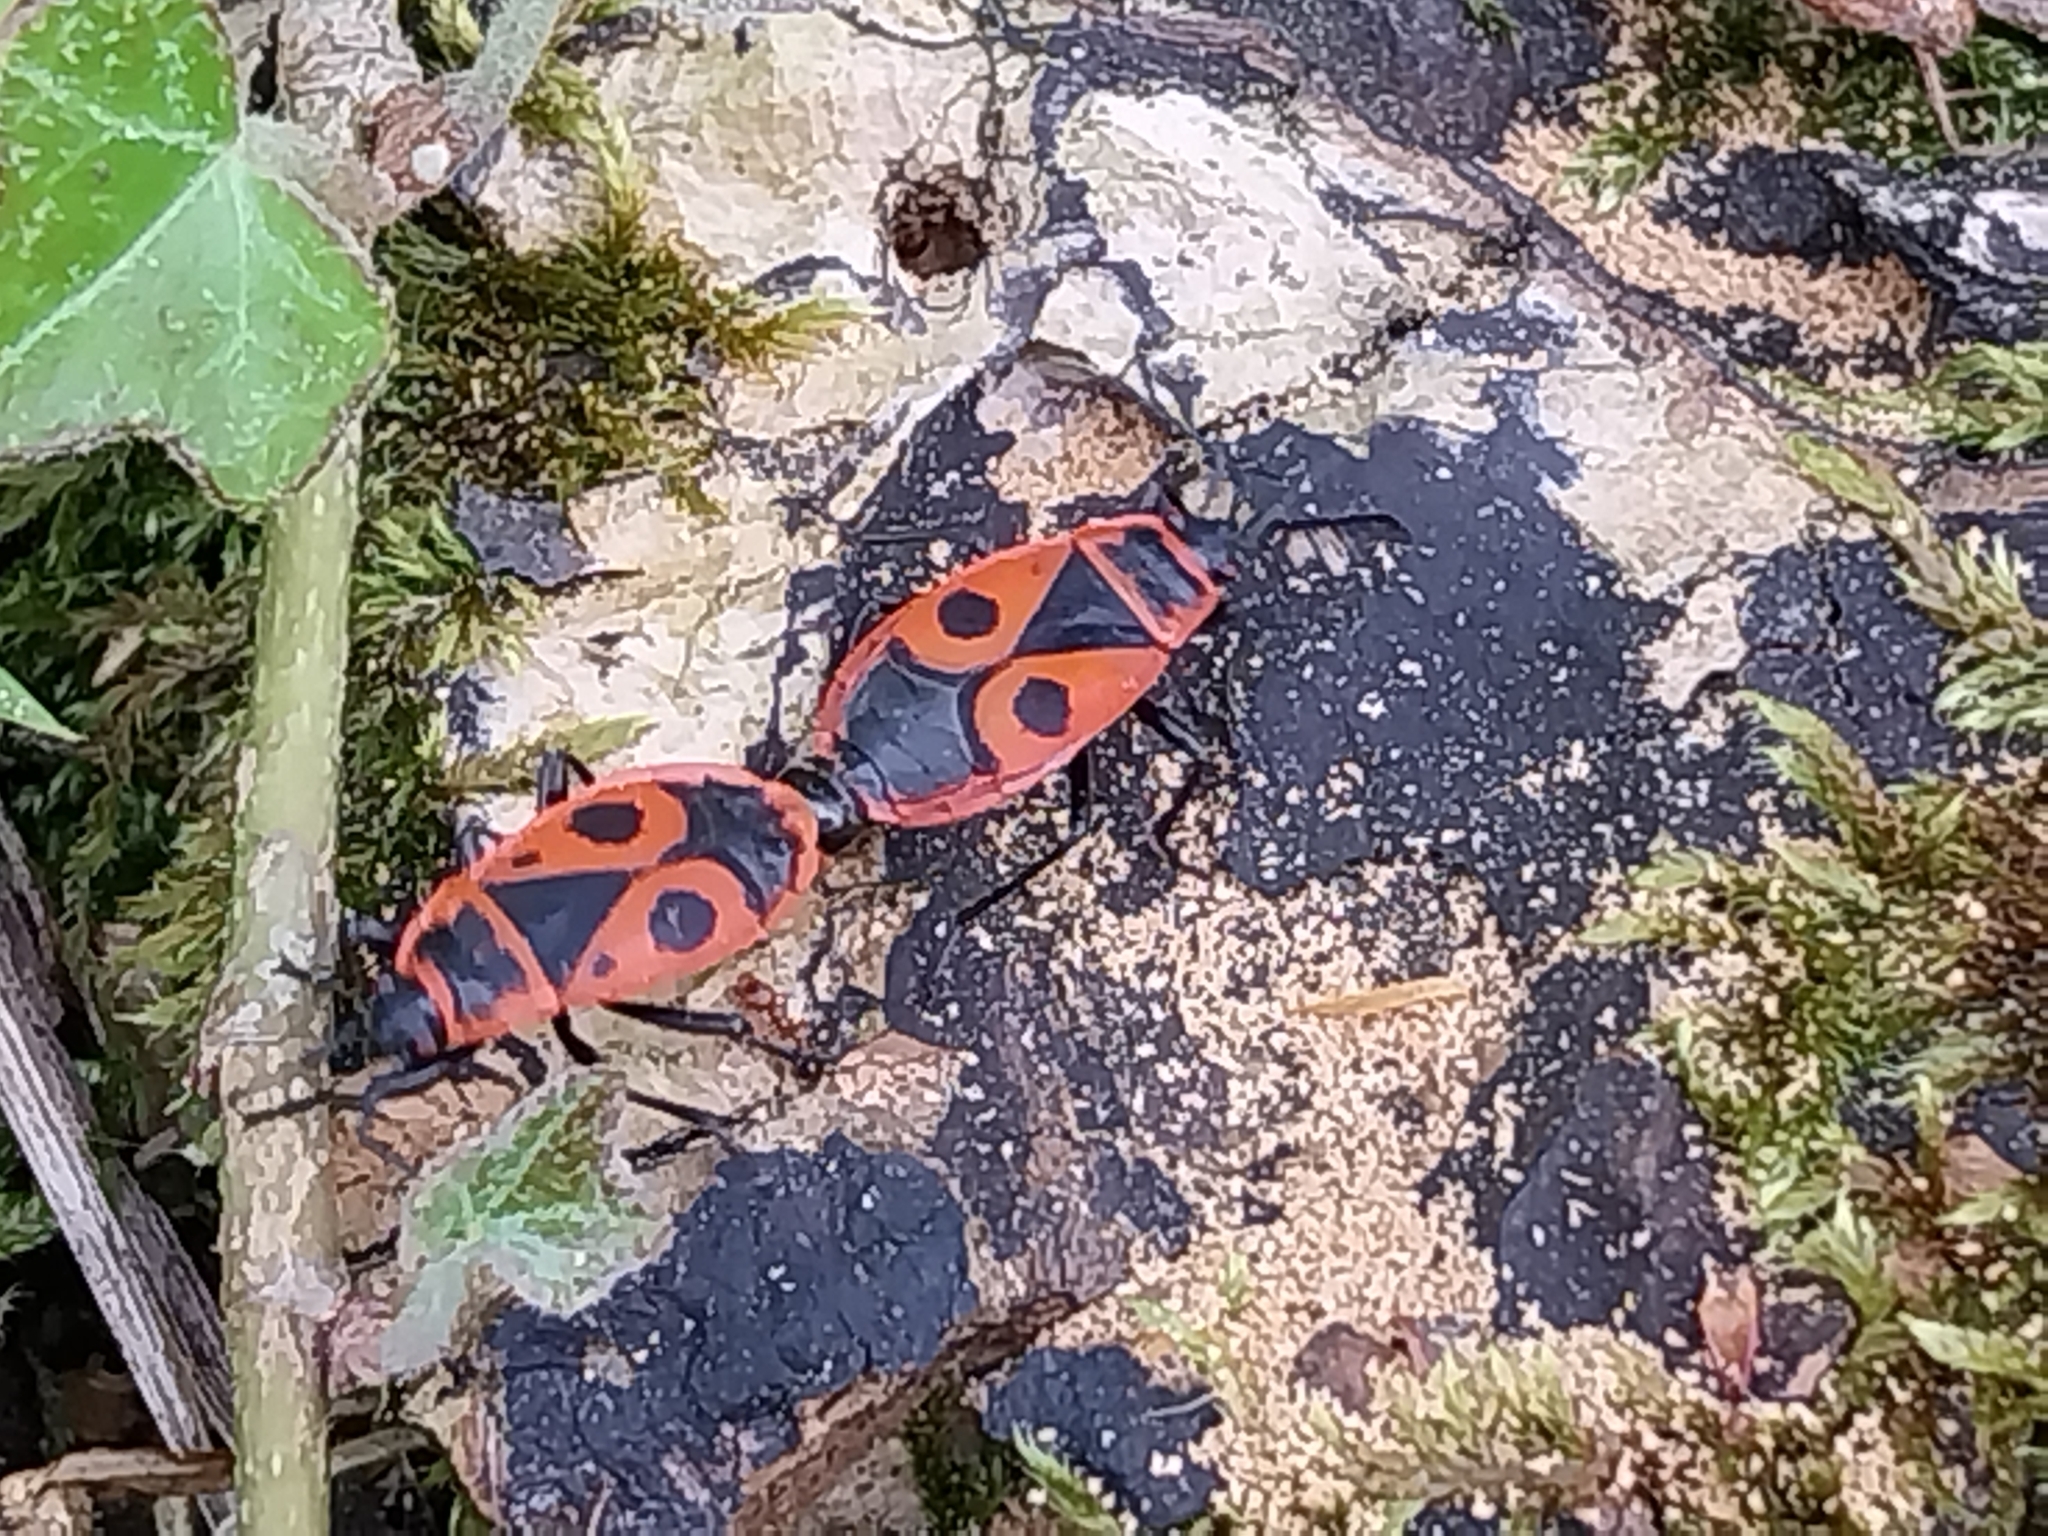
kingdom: Animalia
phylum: Arthropoda
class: Insecta
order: Hemiptera
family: Pyrrhocoridae
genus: Pyrrhocoris
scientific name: Pyrrhocoris apterus
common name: Firebug
